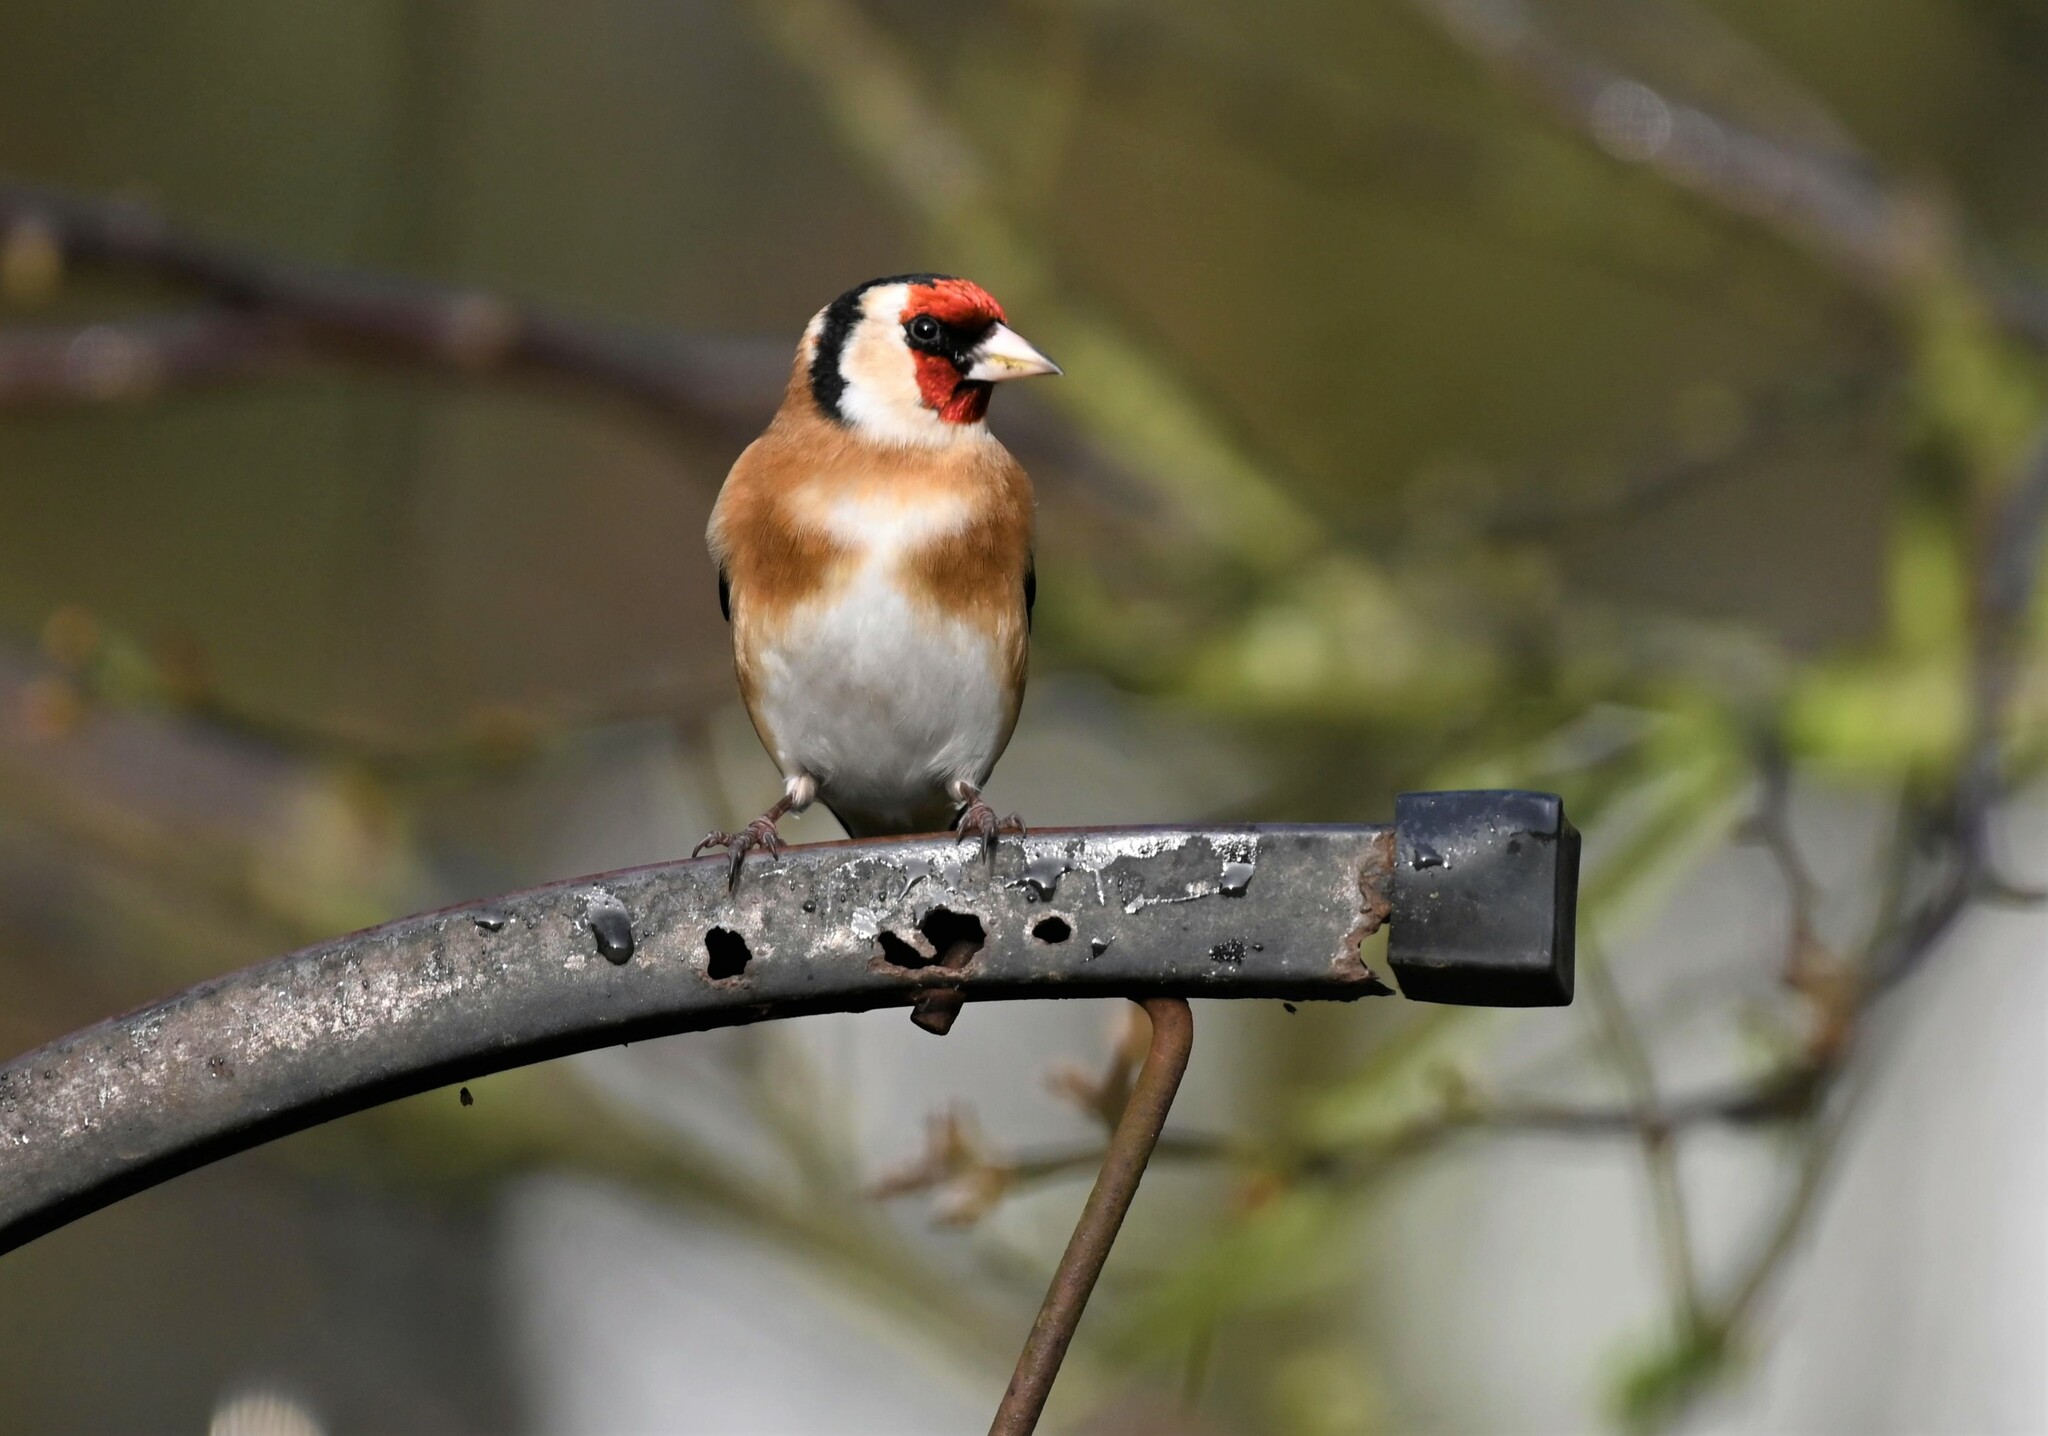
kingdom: Animalia
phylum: Chordata
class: Aves
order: Passeriformes
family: Fringillidae
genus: Carduelis
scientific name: Carduelis carduelis
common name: European goldfinch
